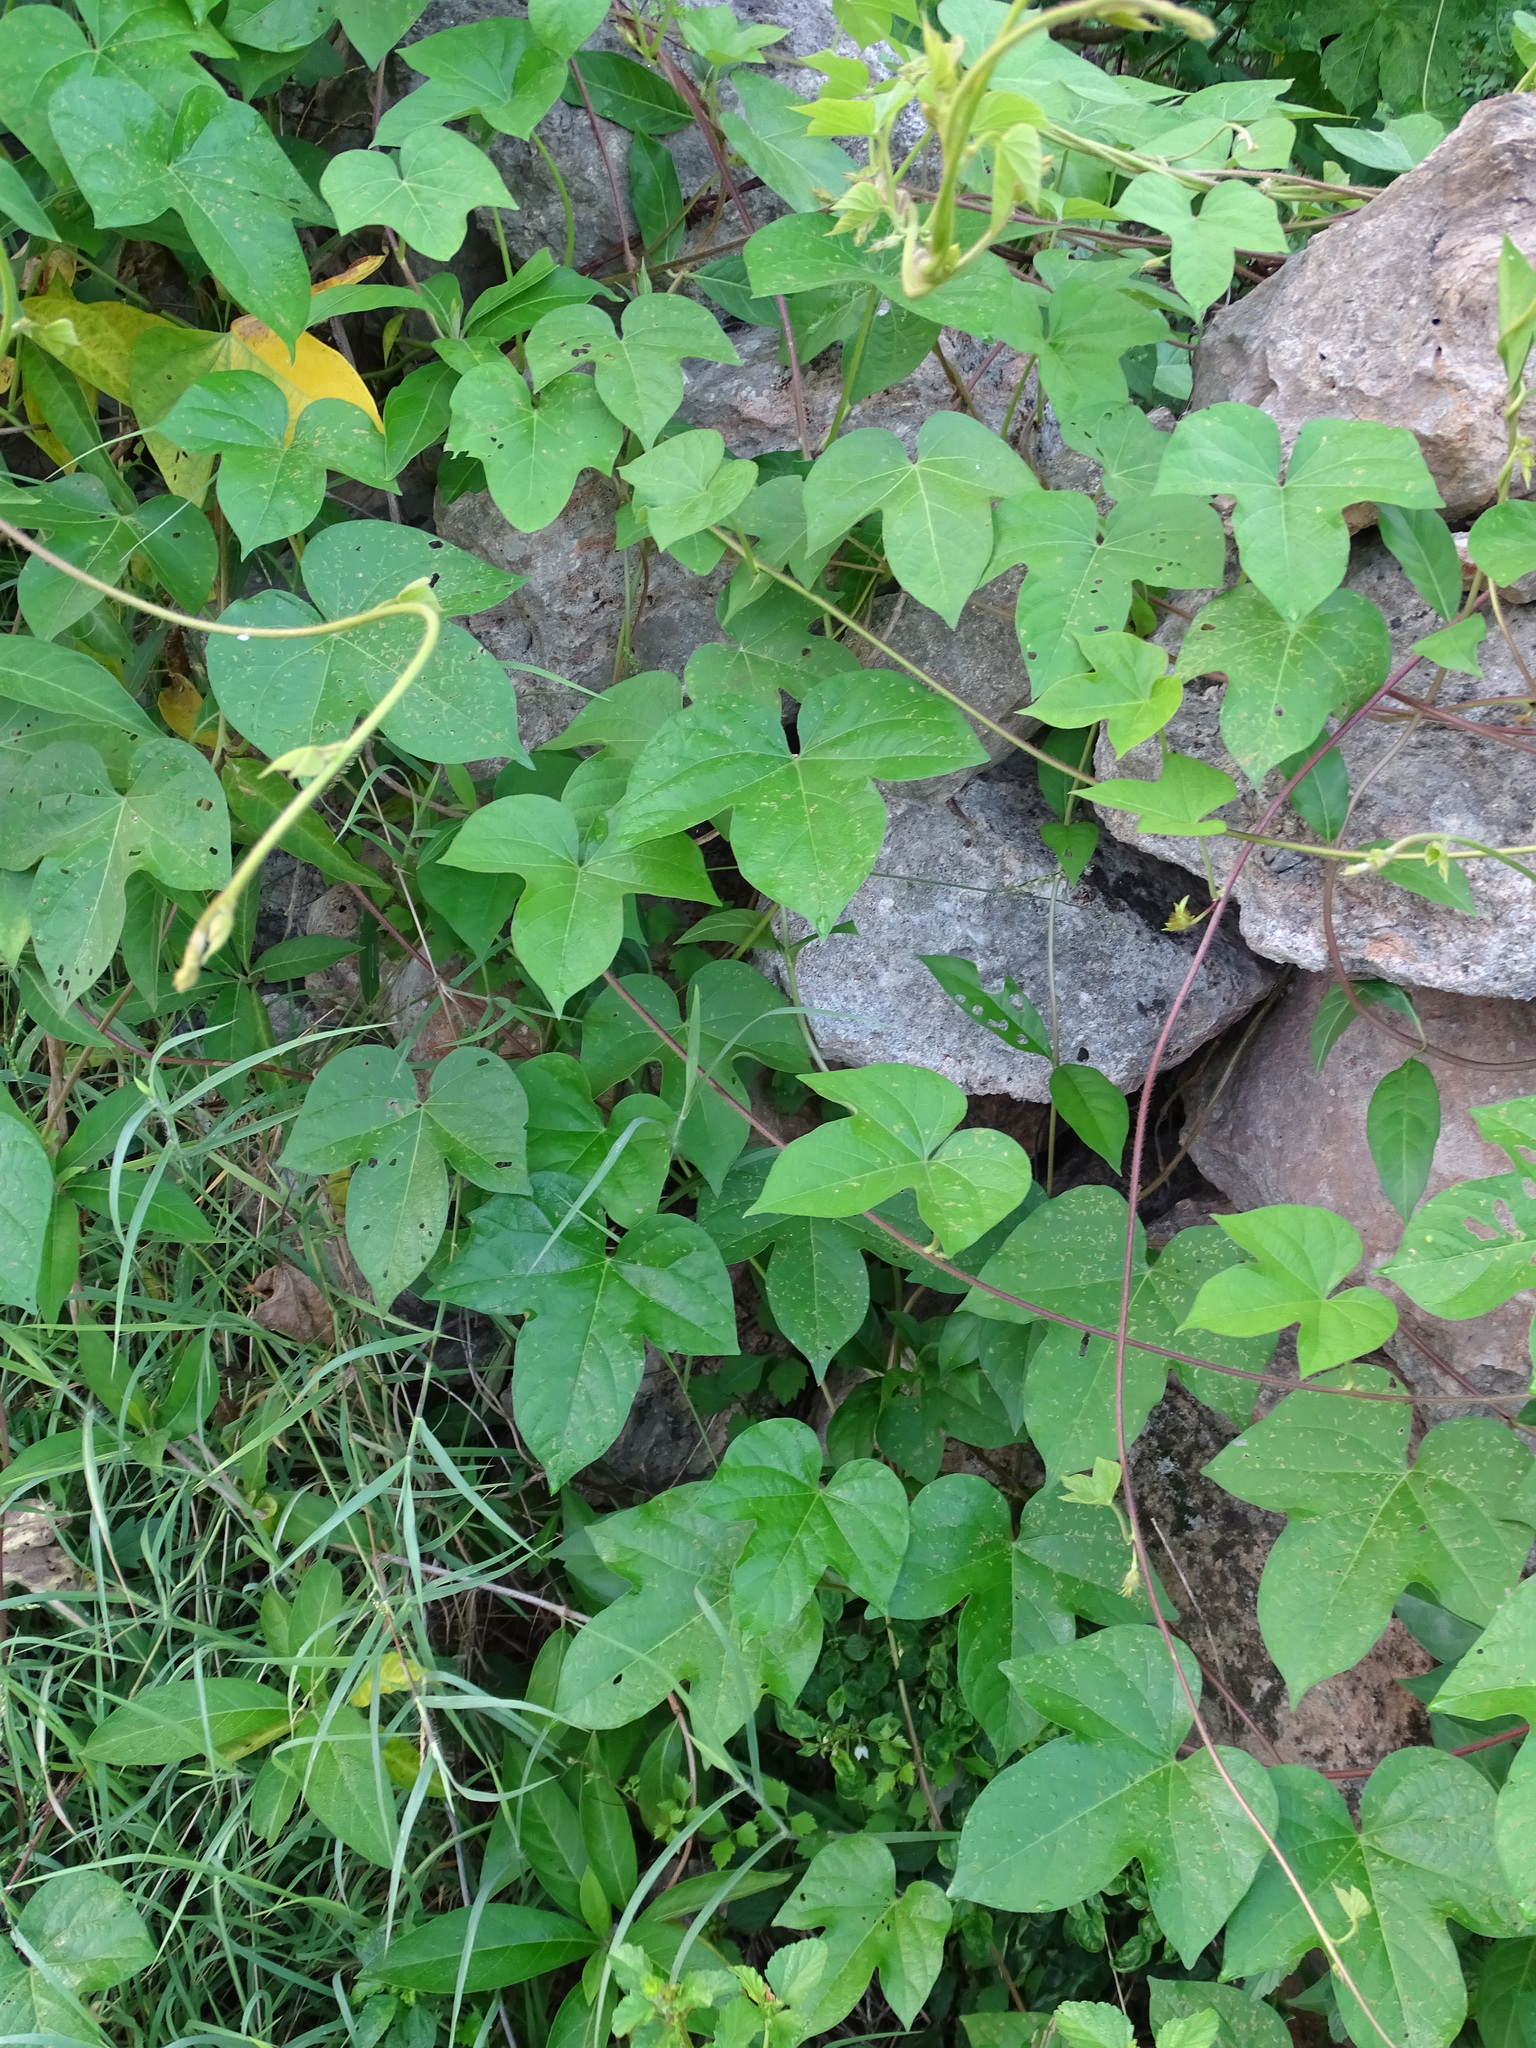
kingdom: Plantae
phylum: Tracheophyta
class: Magnoliopsida
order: Solanales
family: Convolvulaceae
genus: Ipomoea
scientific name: Ipomoea nil
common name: Japanese morning-glory
